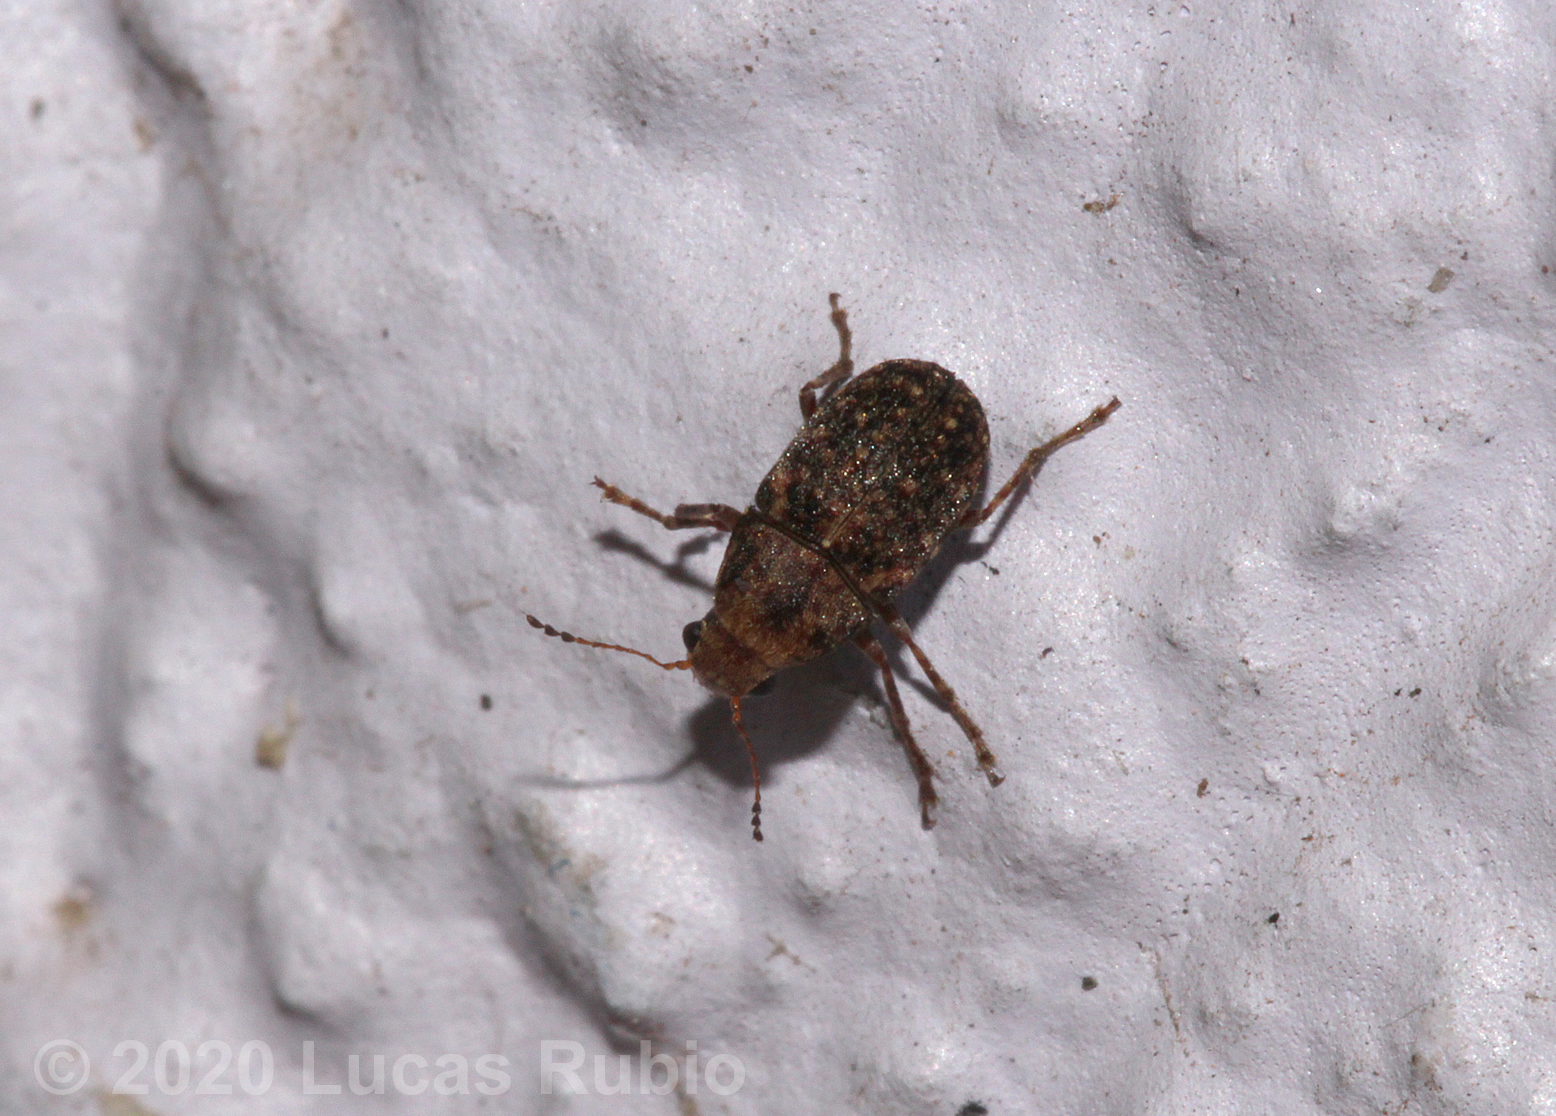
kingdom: Animalia
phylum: Arthropoda
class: Insecta
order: Coleoptera
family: Anthribidae
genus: Araecerus
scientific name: Araecerus fasciculatus
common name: Coffee bean weevil
